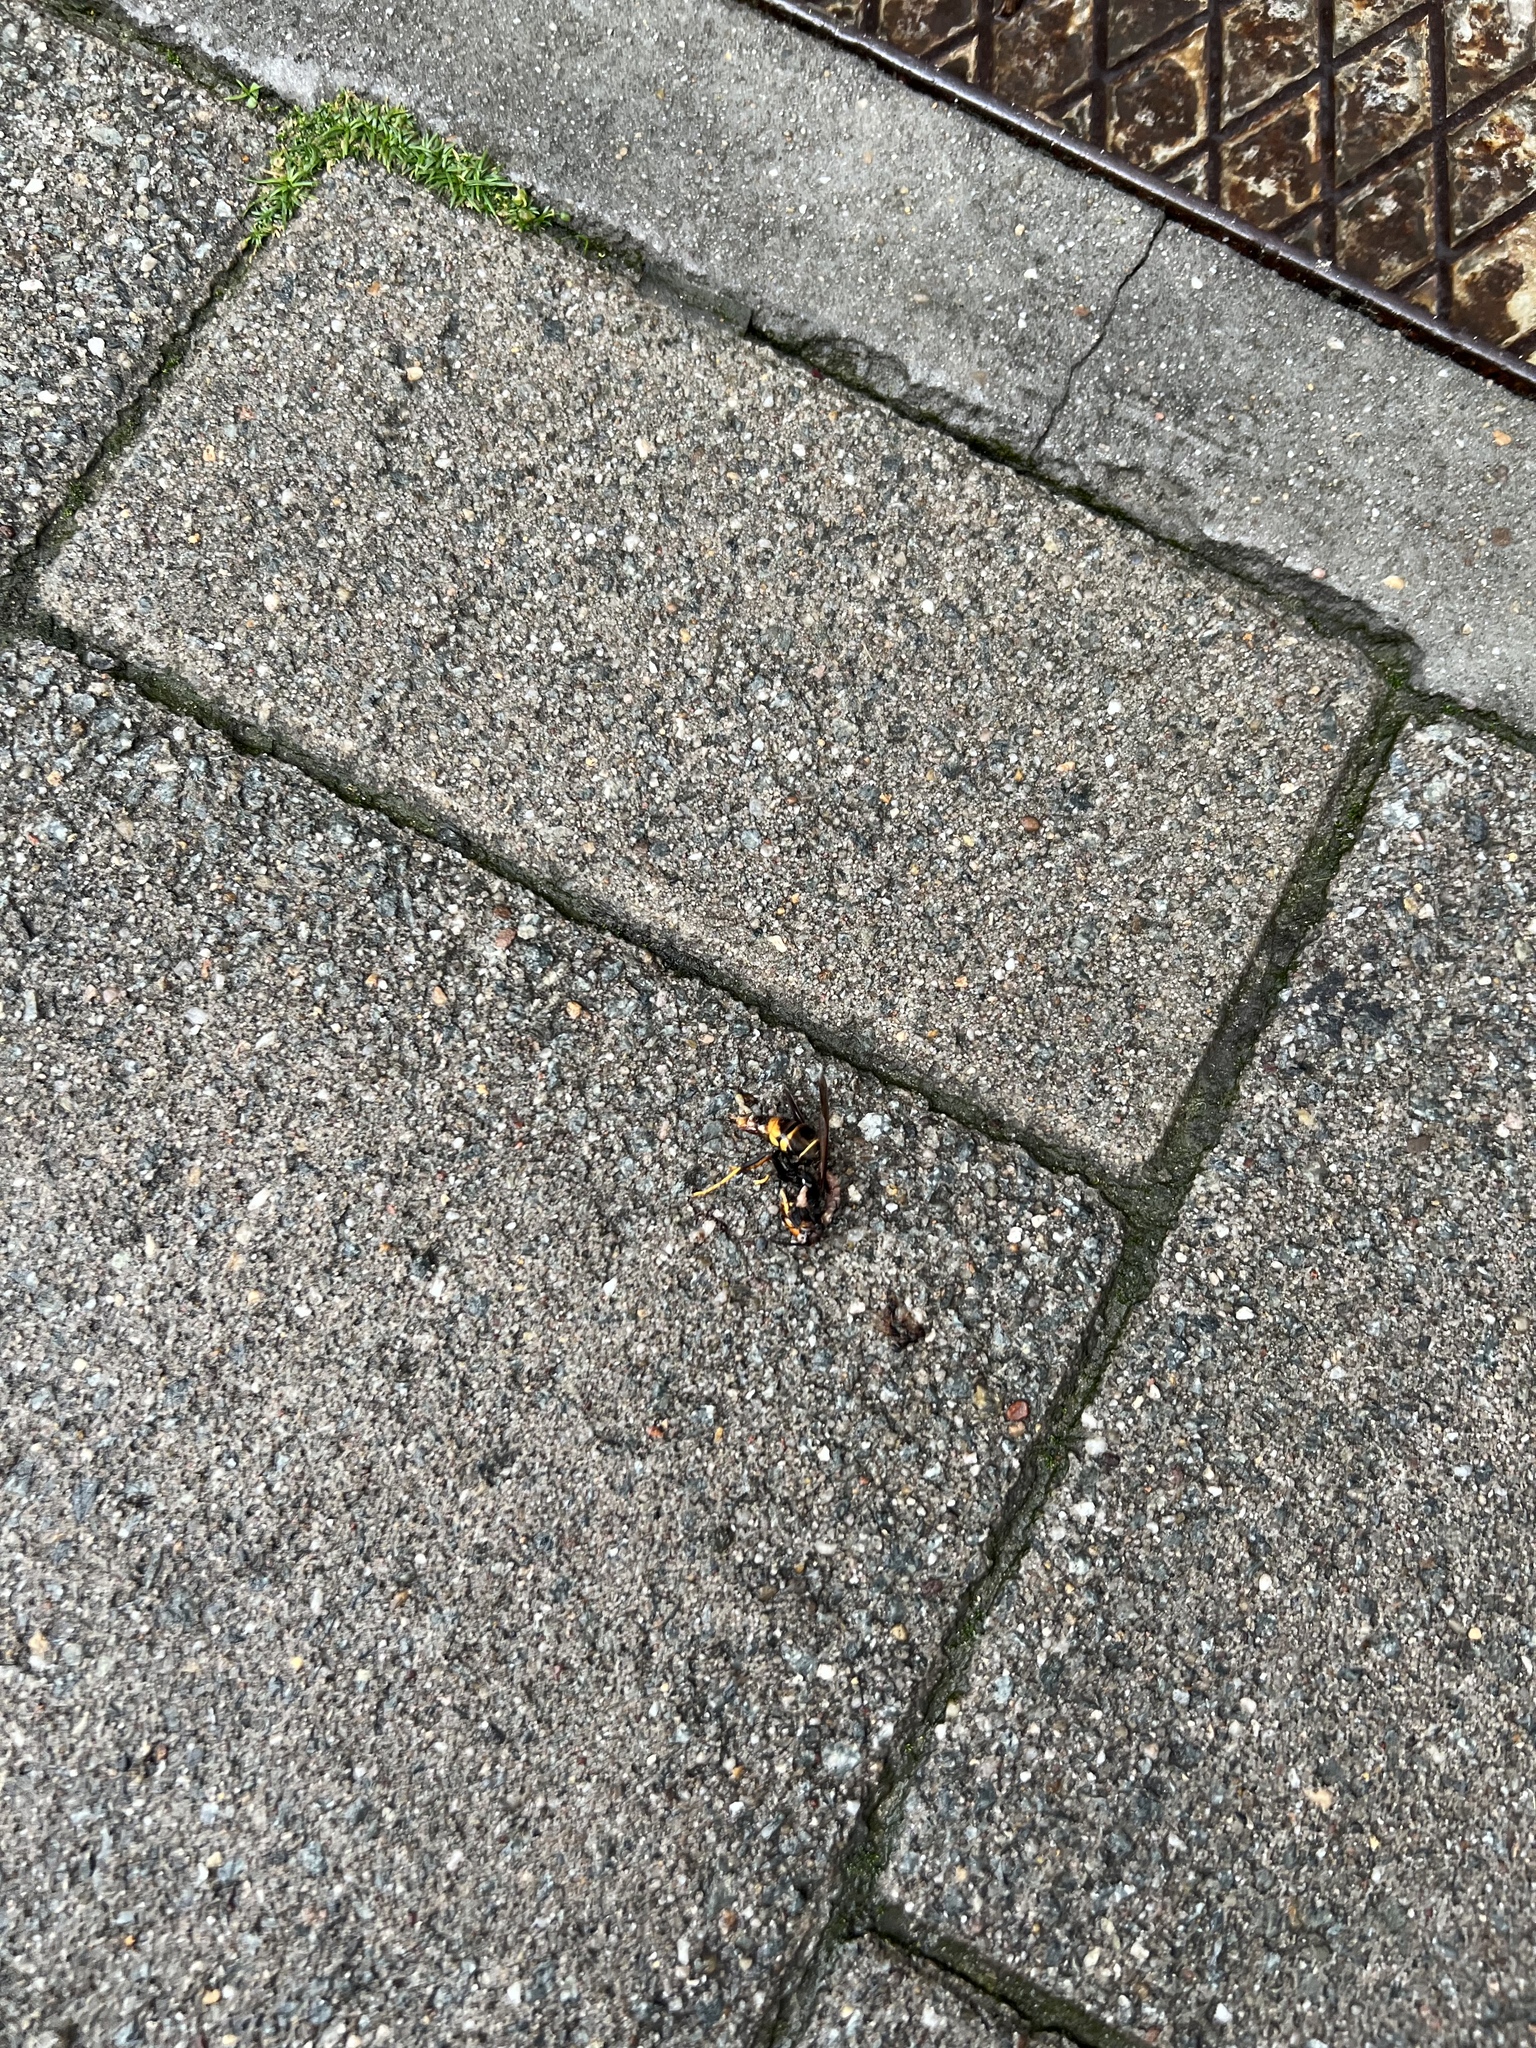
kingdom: Animalia
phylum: Arthropoda
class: Insecta
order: Hymenoptera
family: Vespidae
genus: Vespa
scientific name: Vespa velutina
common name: Asian hornet
